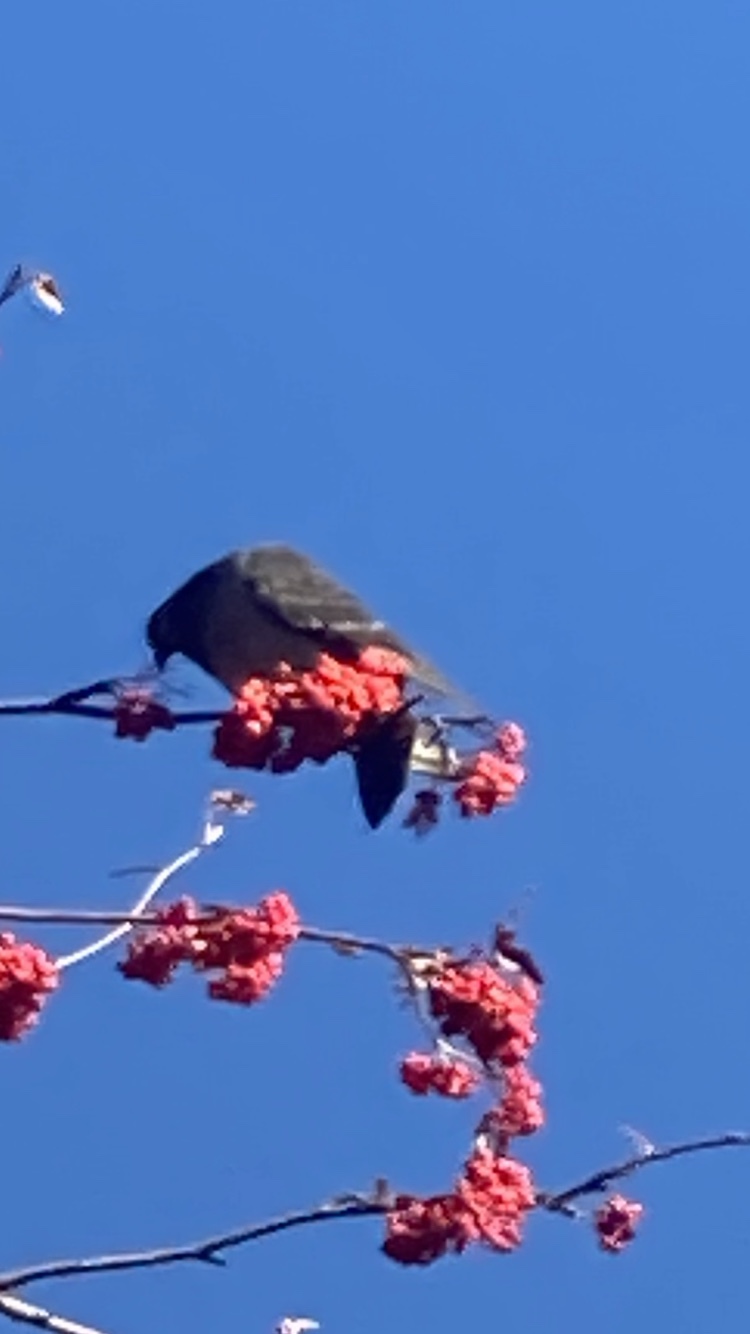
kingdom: Animalia
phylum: Chordata
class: Aves
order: Columbiformes
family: Columbidae
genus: Columba
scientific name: Columba livia
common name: Rock pigeon
